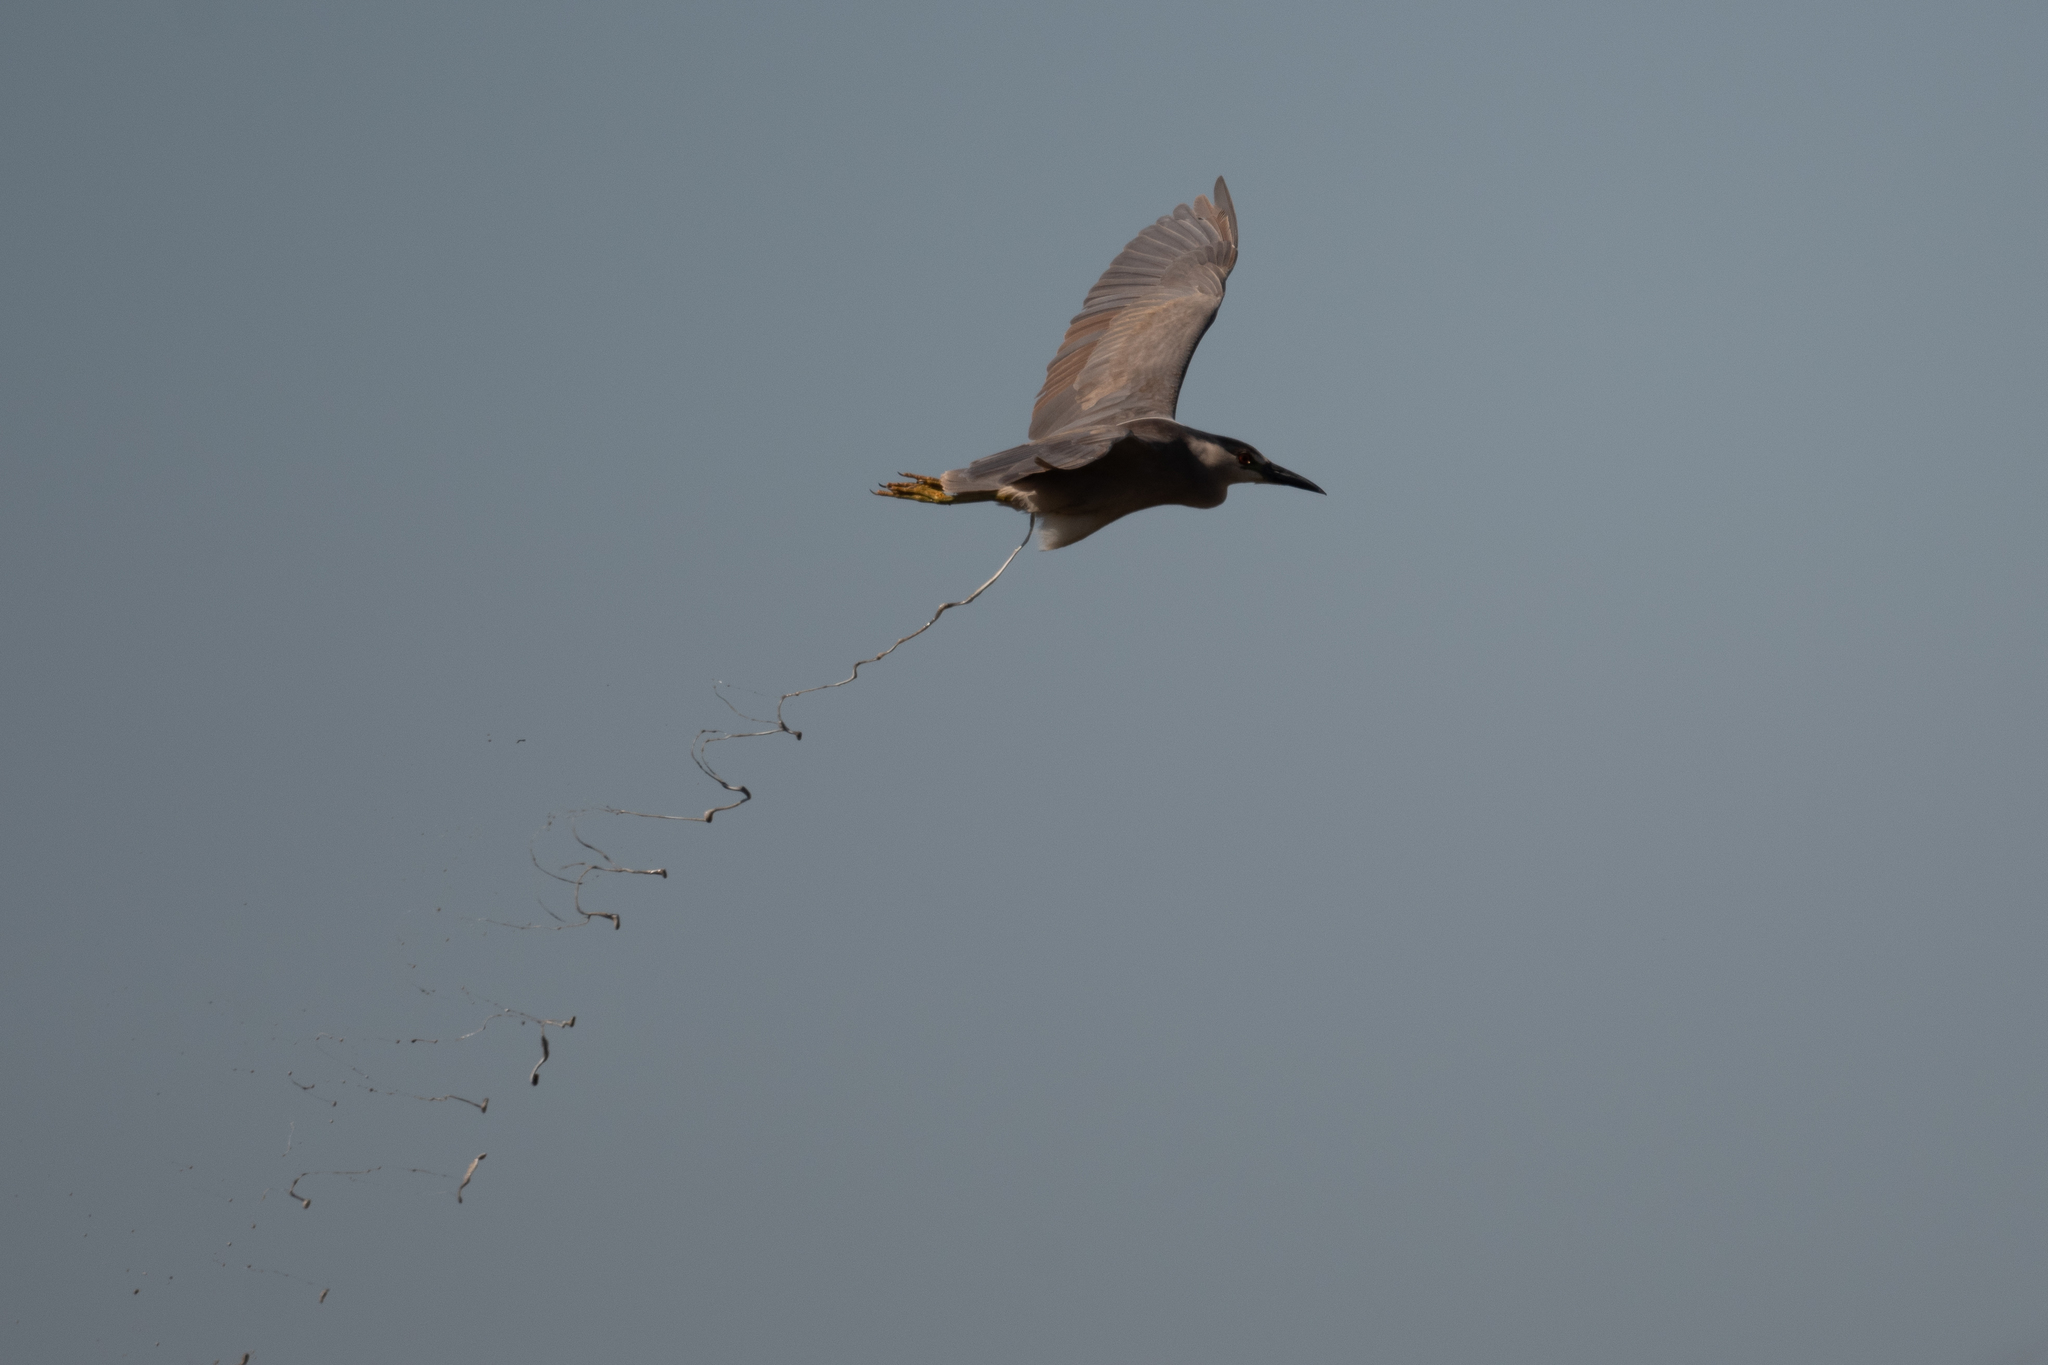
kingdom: Animalia
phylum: Chordata
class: Aves
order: Pelecaniformes
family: Ardeidae
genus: Nycticorax
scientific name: Nycticorax nycticorax
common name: Black-crowned night heron
